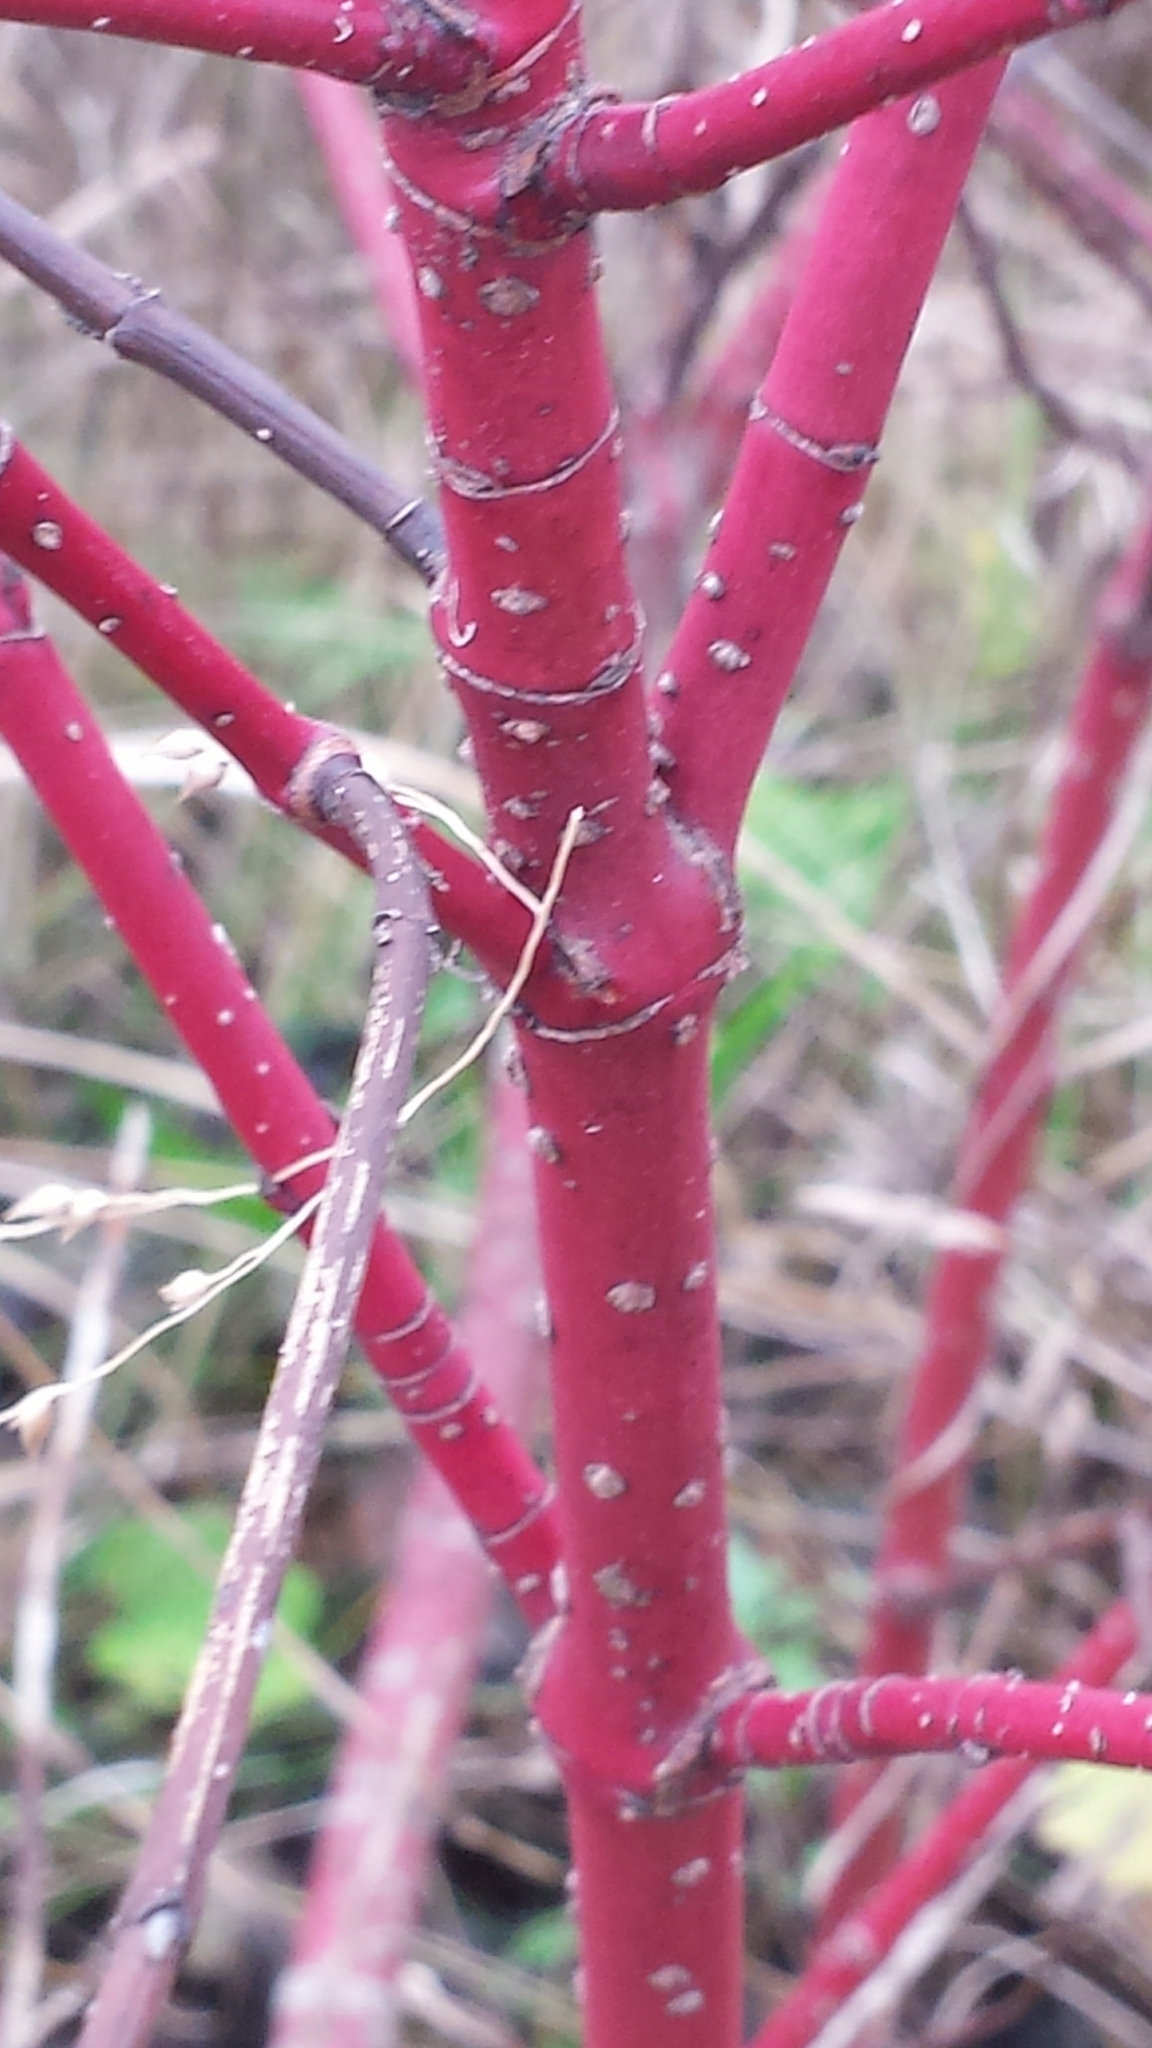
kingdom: Plantae
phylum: Tracheophyta
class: Magnoliopsida
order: Cornales
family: Cornaceae
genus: Cornus
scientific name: Cornus sericea
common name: Red-osier dogwood
